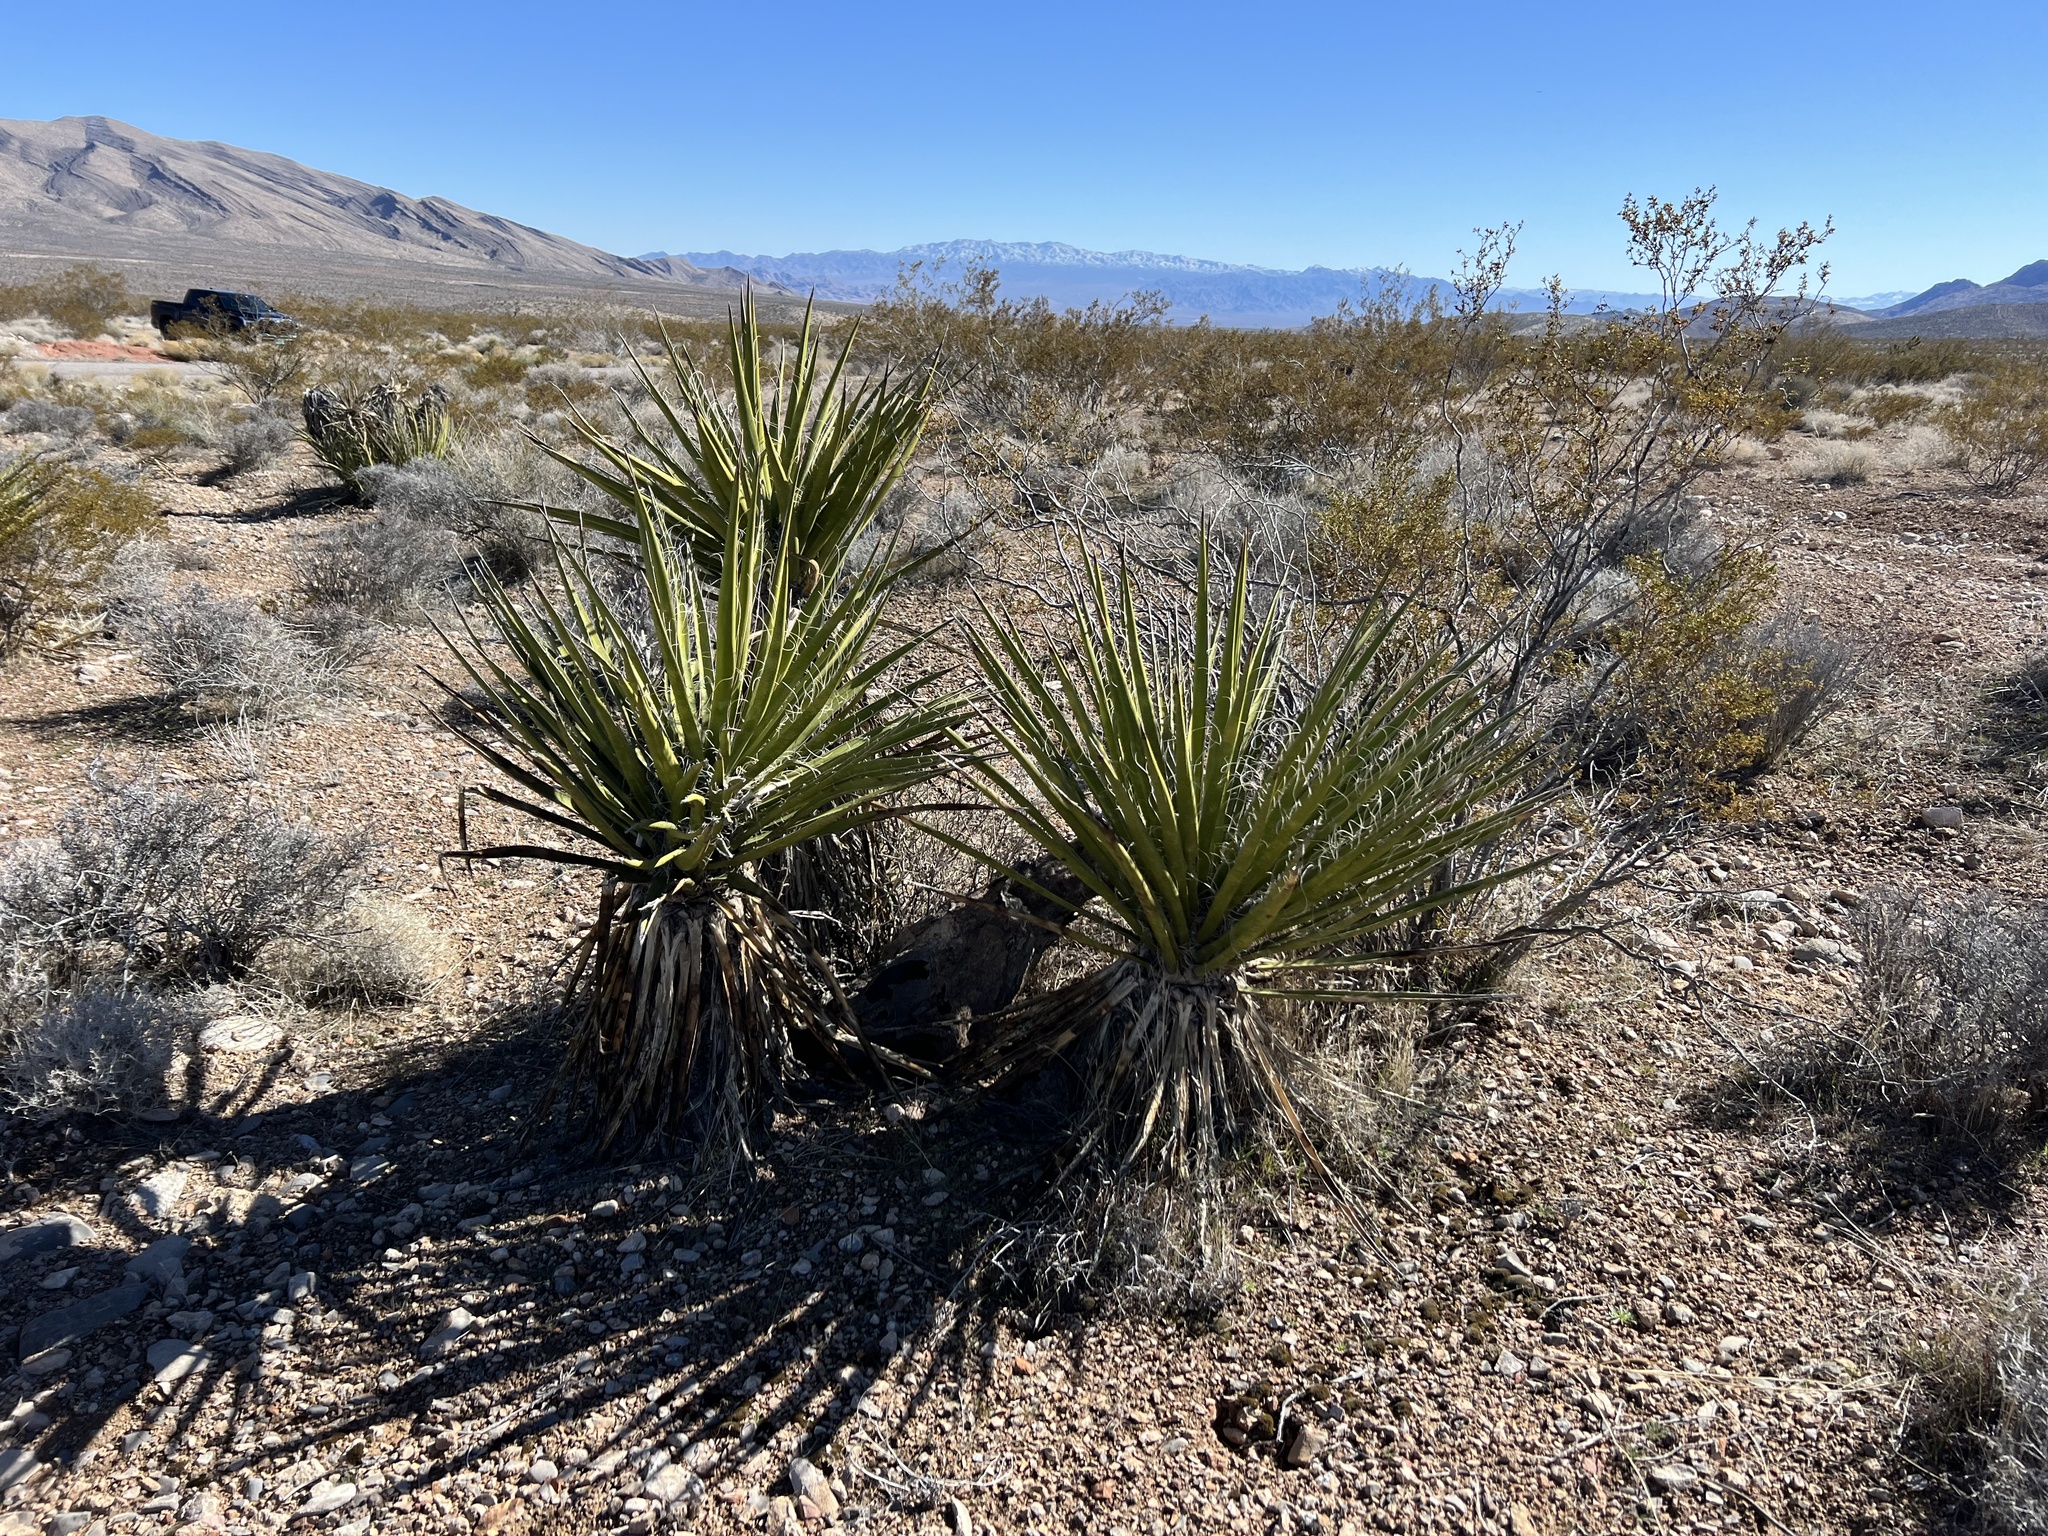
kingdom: Plantae
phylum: Tracheophyta
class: Liliopsida
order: Asparagales
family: Asparagaceae
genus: Yucca
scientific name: Yucca schidigera
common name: Mojave yucca
